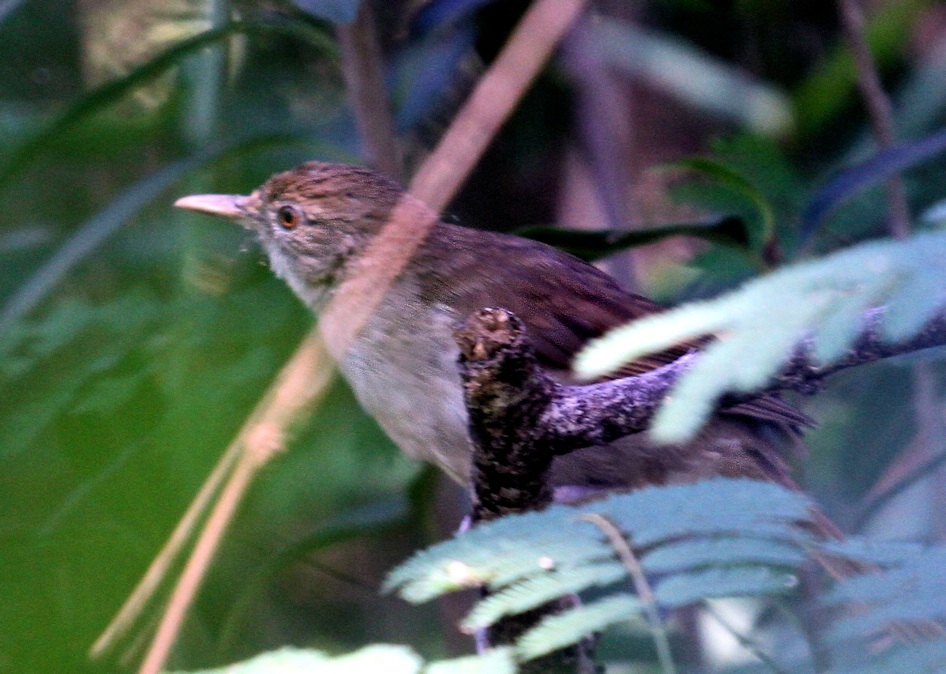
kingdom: Animalia
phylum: Chordata
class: Aves
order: Passeriformes
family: Pycnonotidae
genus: Phyllastrephus
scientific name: Phyllastrephus terrestris
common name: Terrestrial brownbul
